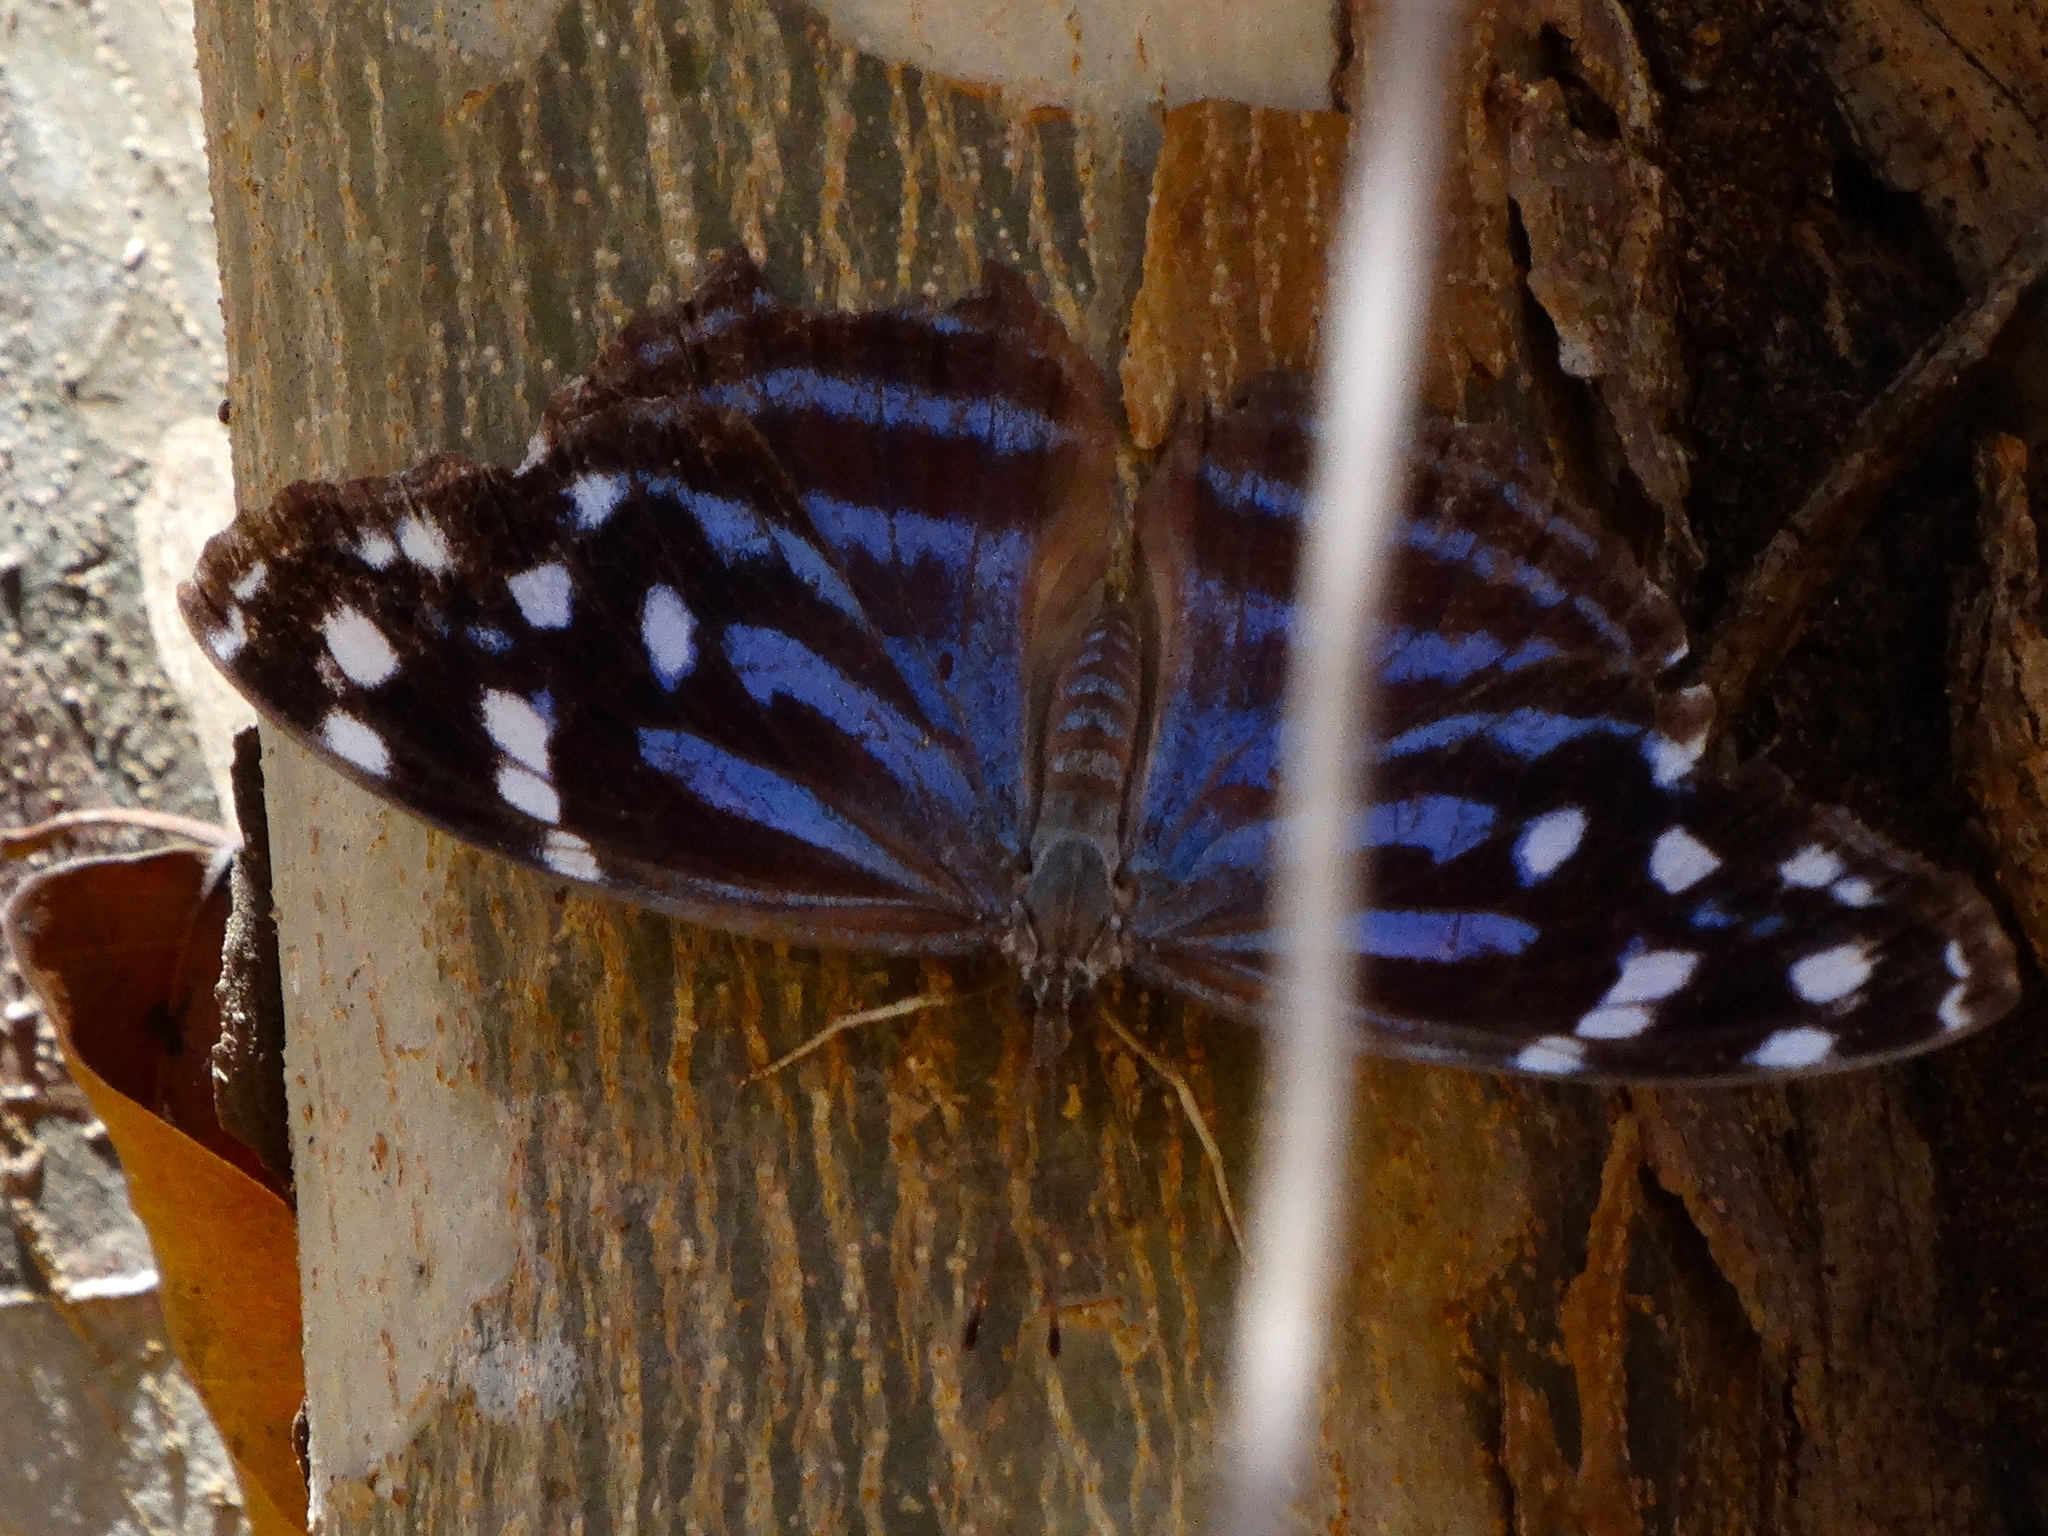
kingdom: Animalia
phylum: Arthropoda
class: Insecta
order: Lepidoptera
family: Nymphalidae
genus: Myscelia
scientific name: Myscelia ethusa
